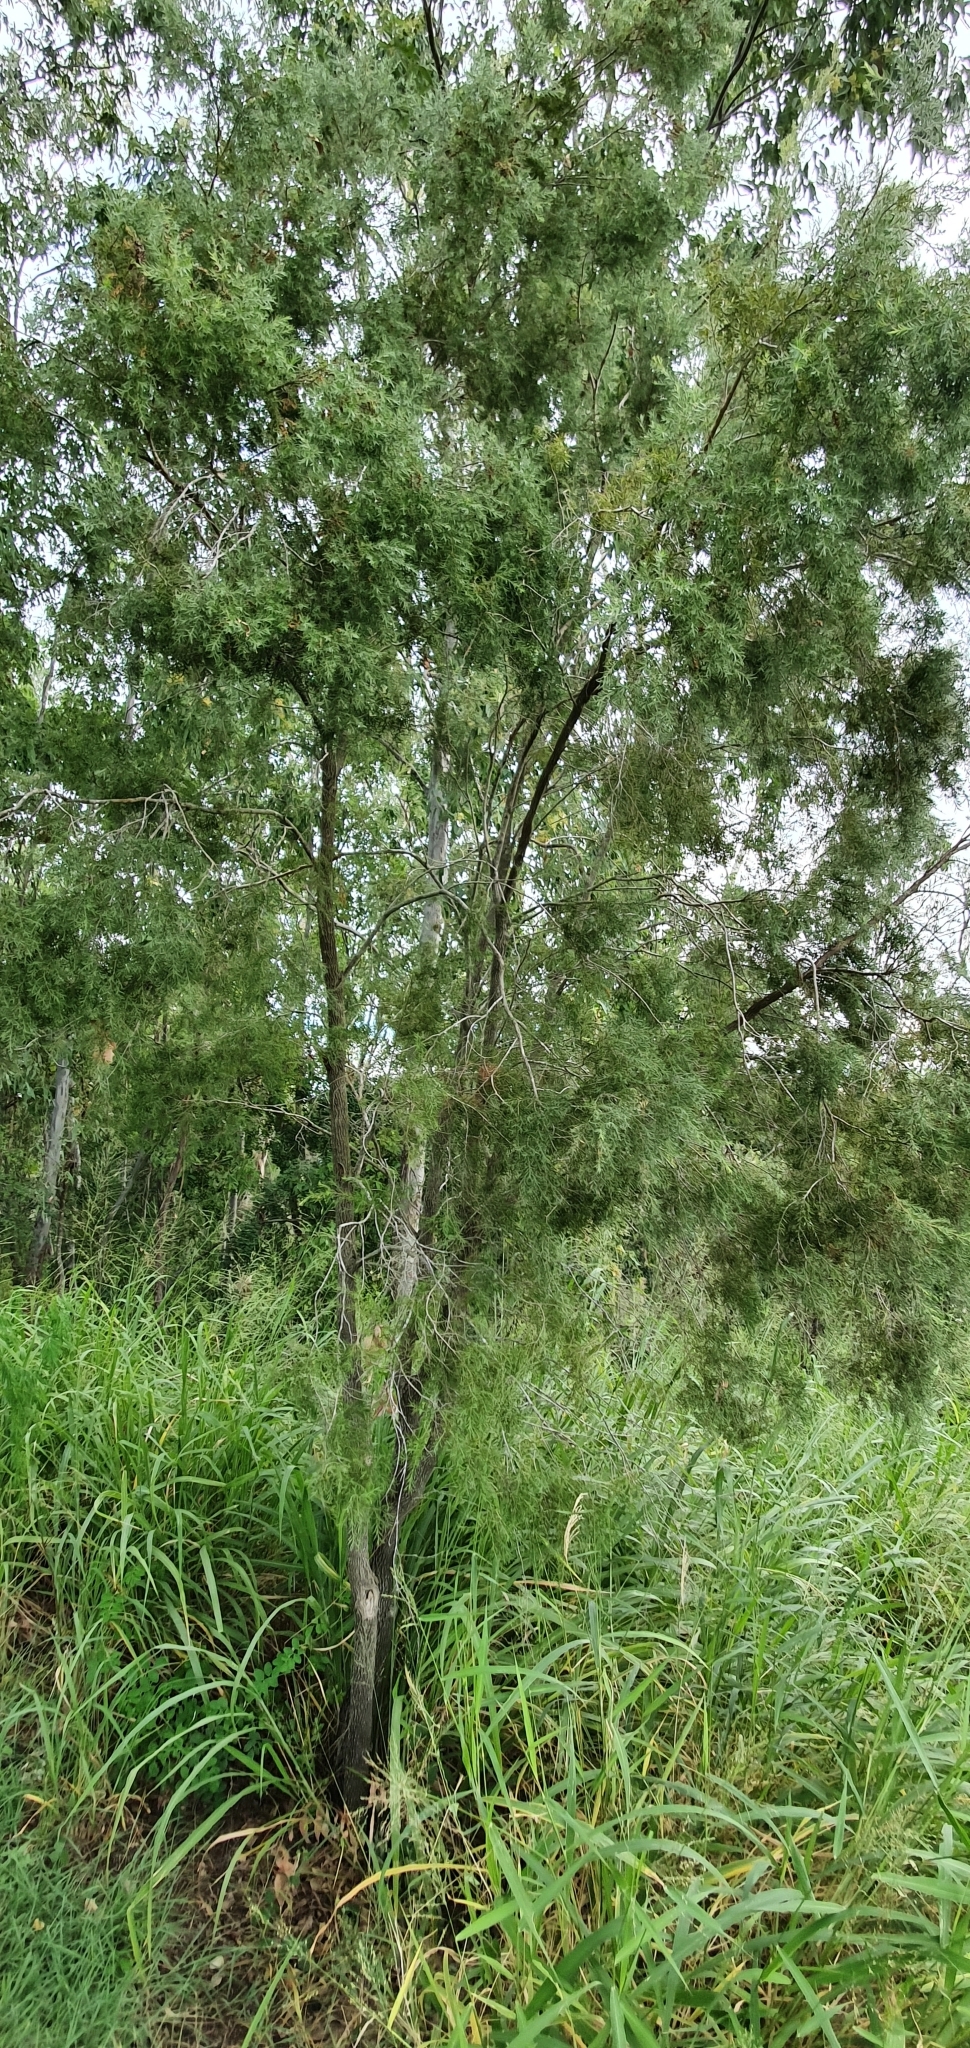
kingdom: Plantae
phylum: Tracheophyta
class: Magnoliopsida
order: Myrtales
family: Myrtaceae
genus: Melaleuca
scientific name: Melaleuca bracteata
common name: Black tea-tree
